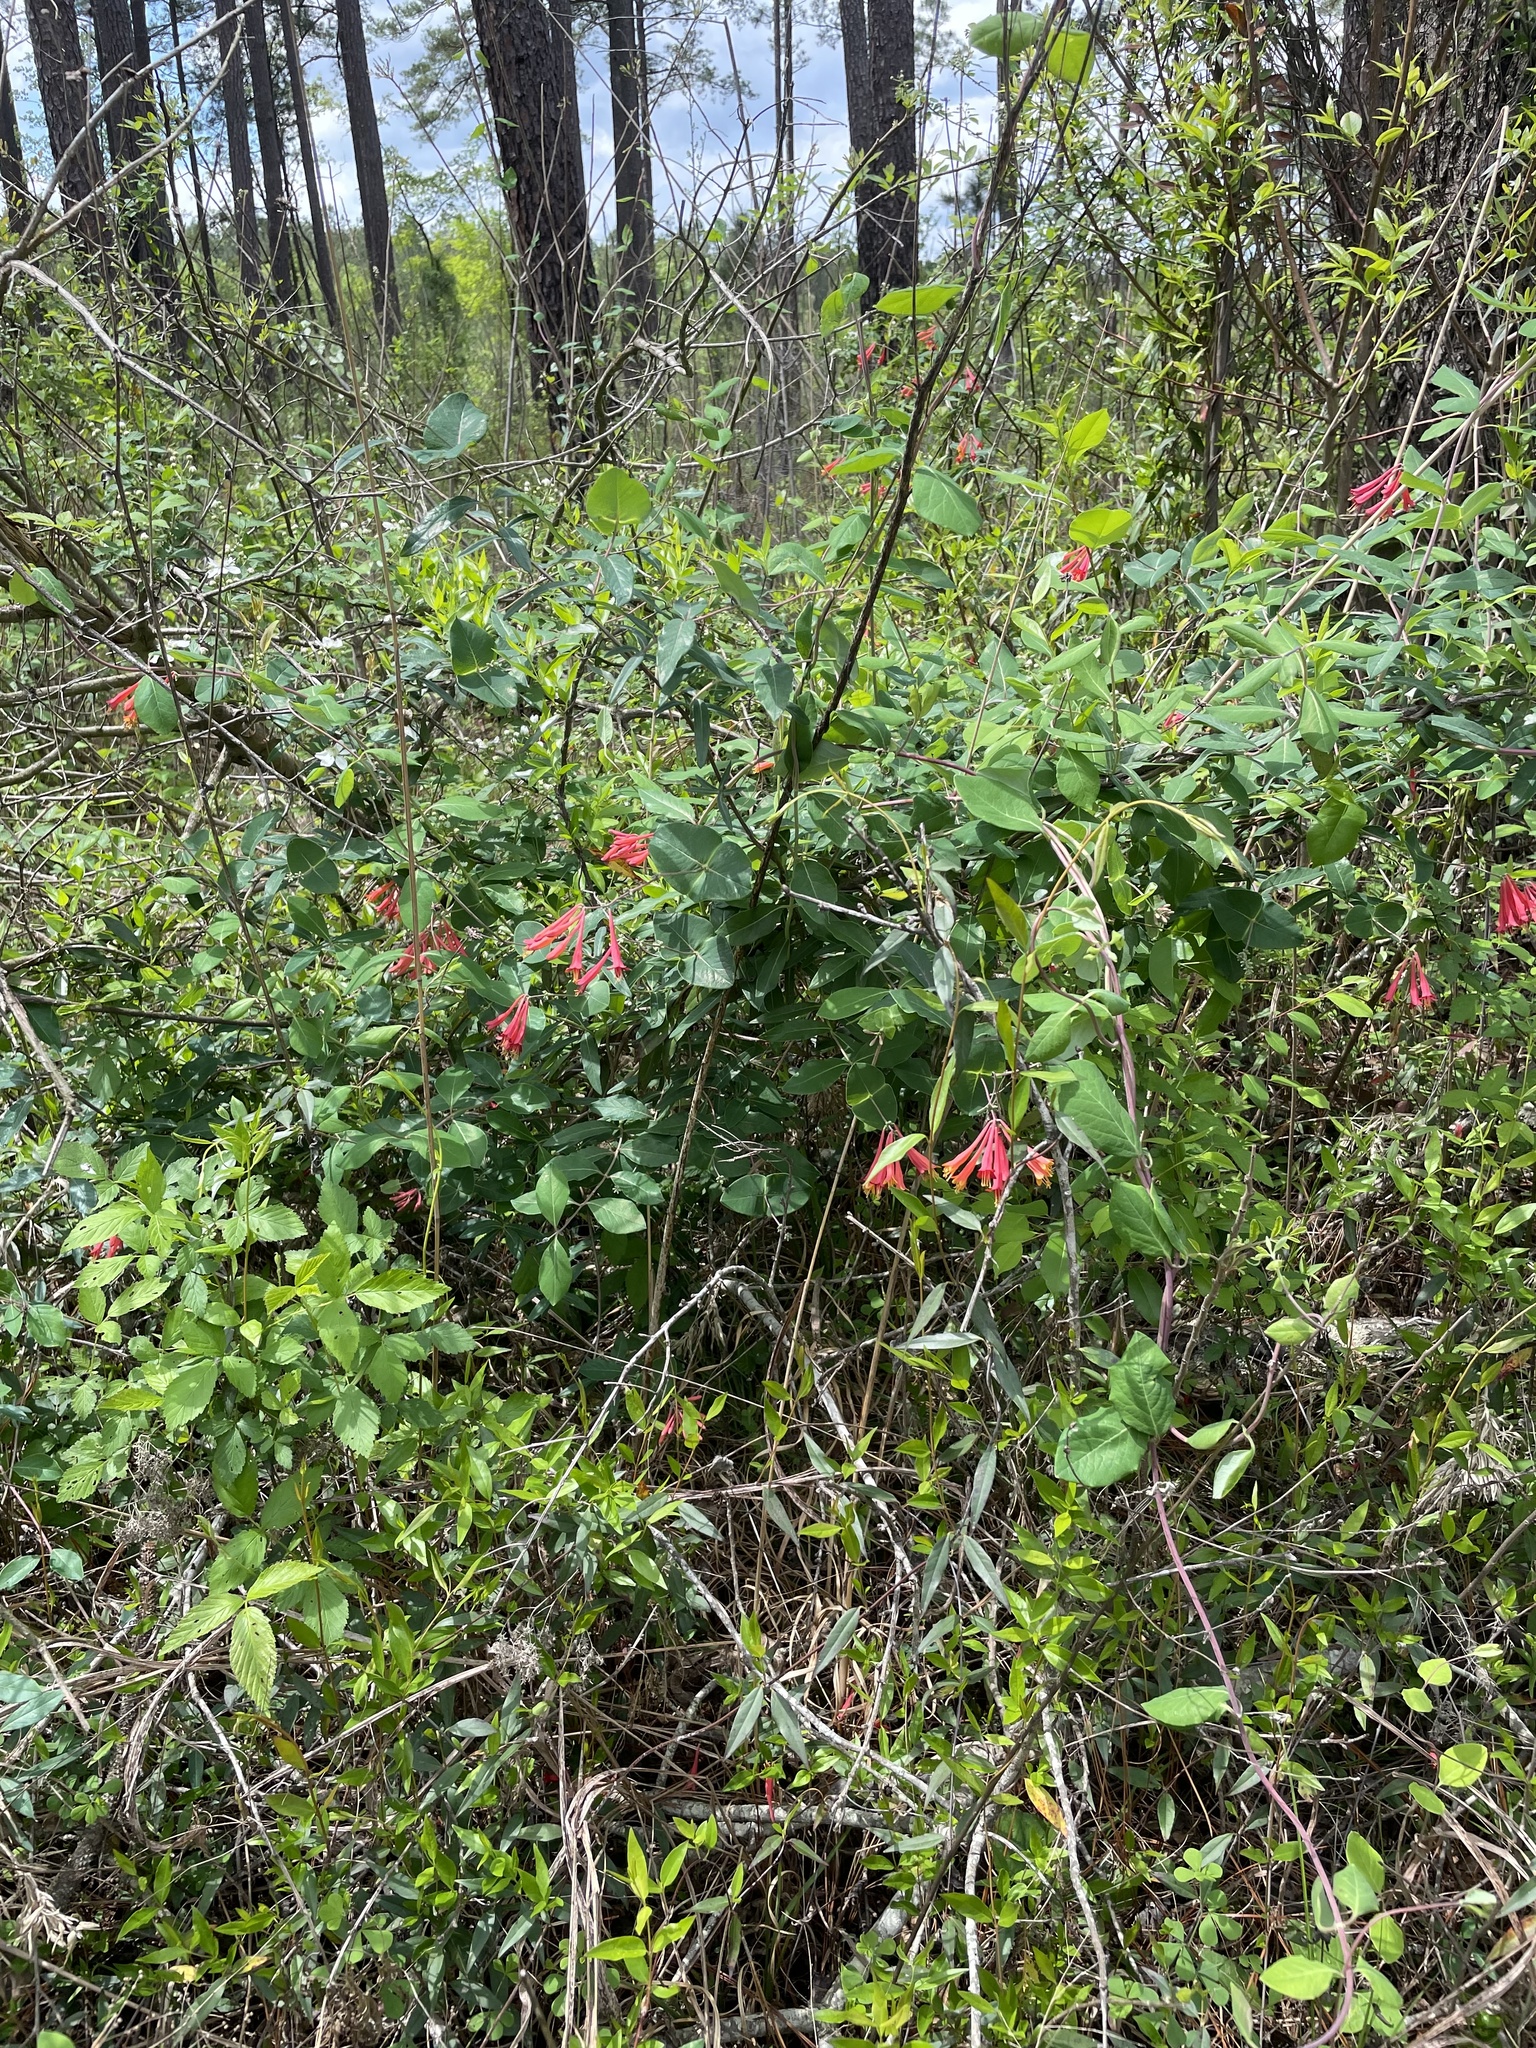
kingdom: Plantae
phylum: Tracheophyta
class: Magnoliopsida
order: Dipsacales
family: Caprifoliaceae
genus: Lonicera
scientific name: Lonicera sempervirens
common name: Coral honeysuckle
